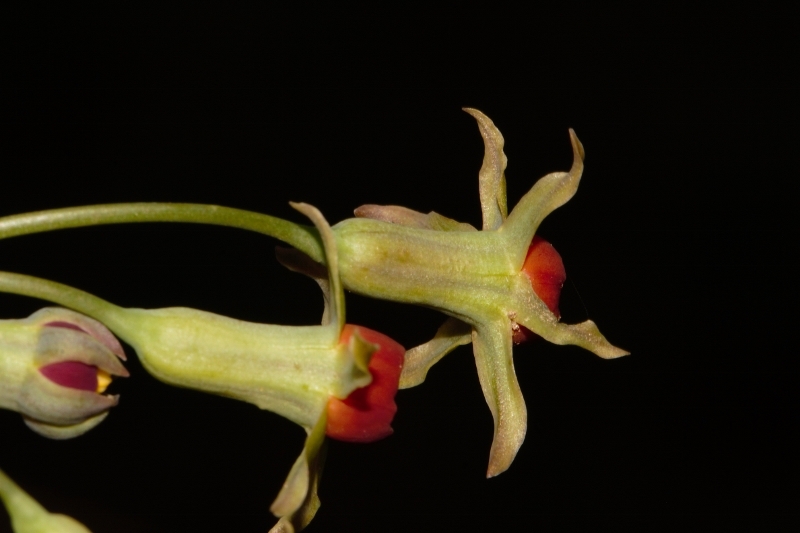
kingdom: Plantae
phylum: Tracheophyta
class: Liliopsida
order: Asparagales
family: Amaryllidaceae
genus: Tulbaghia
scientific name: Tulbaghia alliacea
